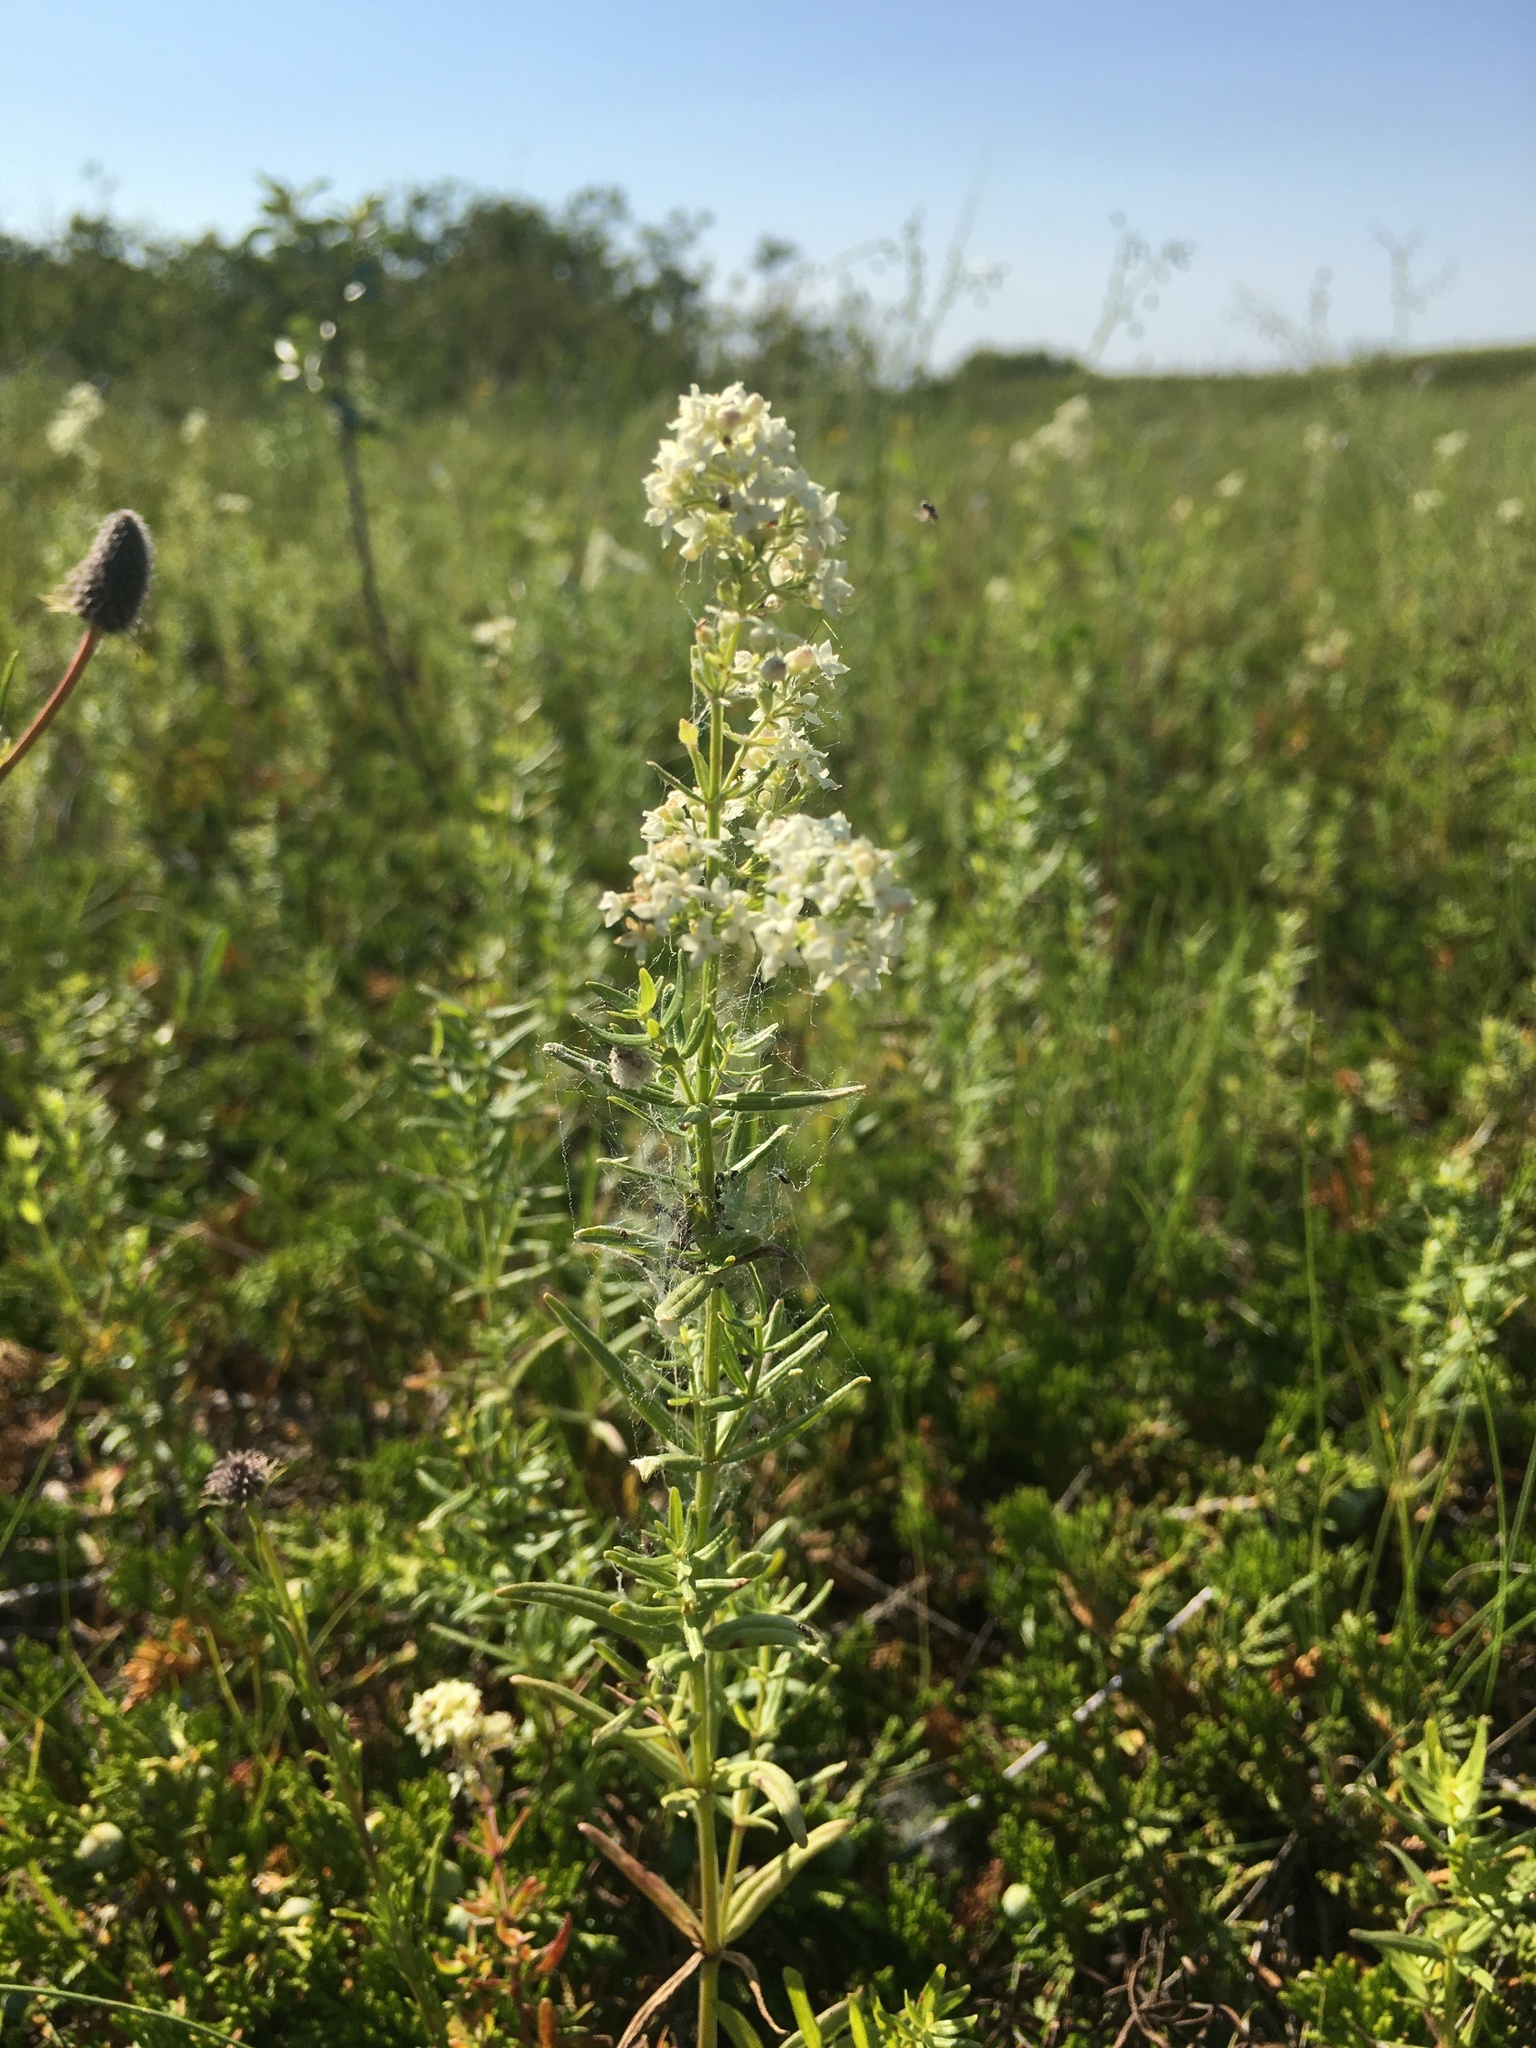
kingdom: Plantae
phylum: Tracheophyta
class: Magnoliopsida
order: Gentianales
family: Rubiaceae
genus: Galium
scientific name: Galium boreale
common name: Northern bedstraw
